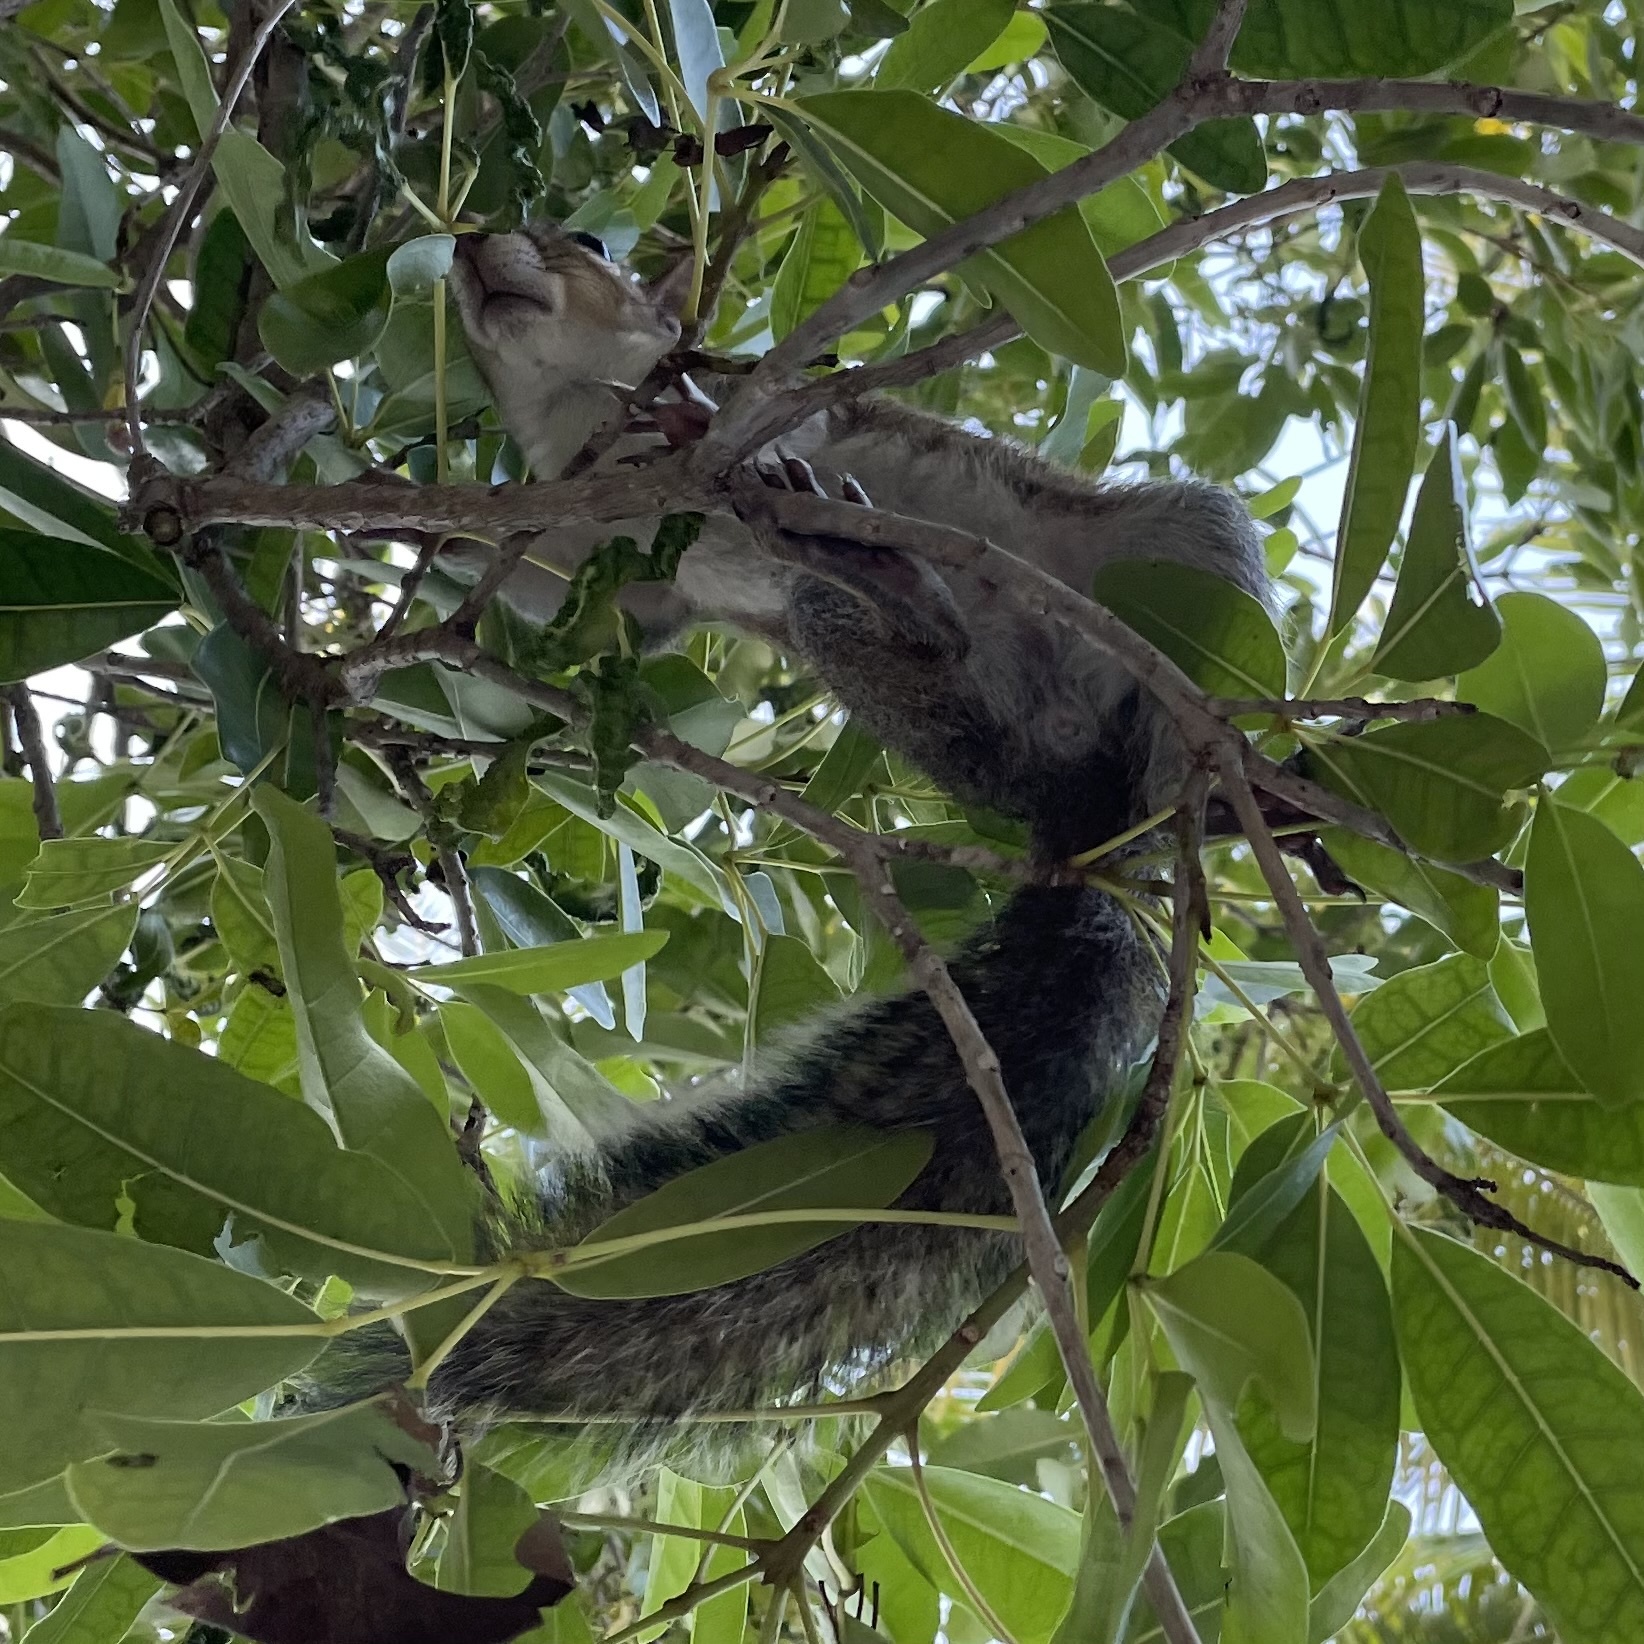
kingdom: Animalia
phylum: Chordata
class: Mammalia
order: Rodentia
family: Sciuridae
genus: Sciurus
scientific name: Sciurus carolinensis
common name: Eastern gray squirrel
